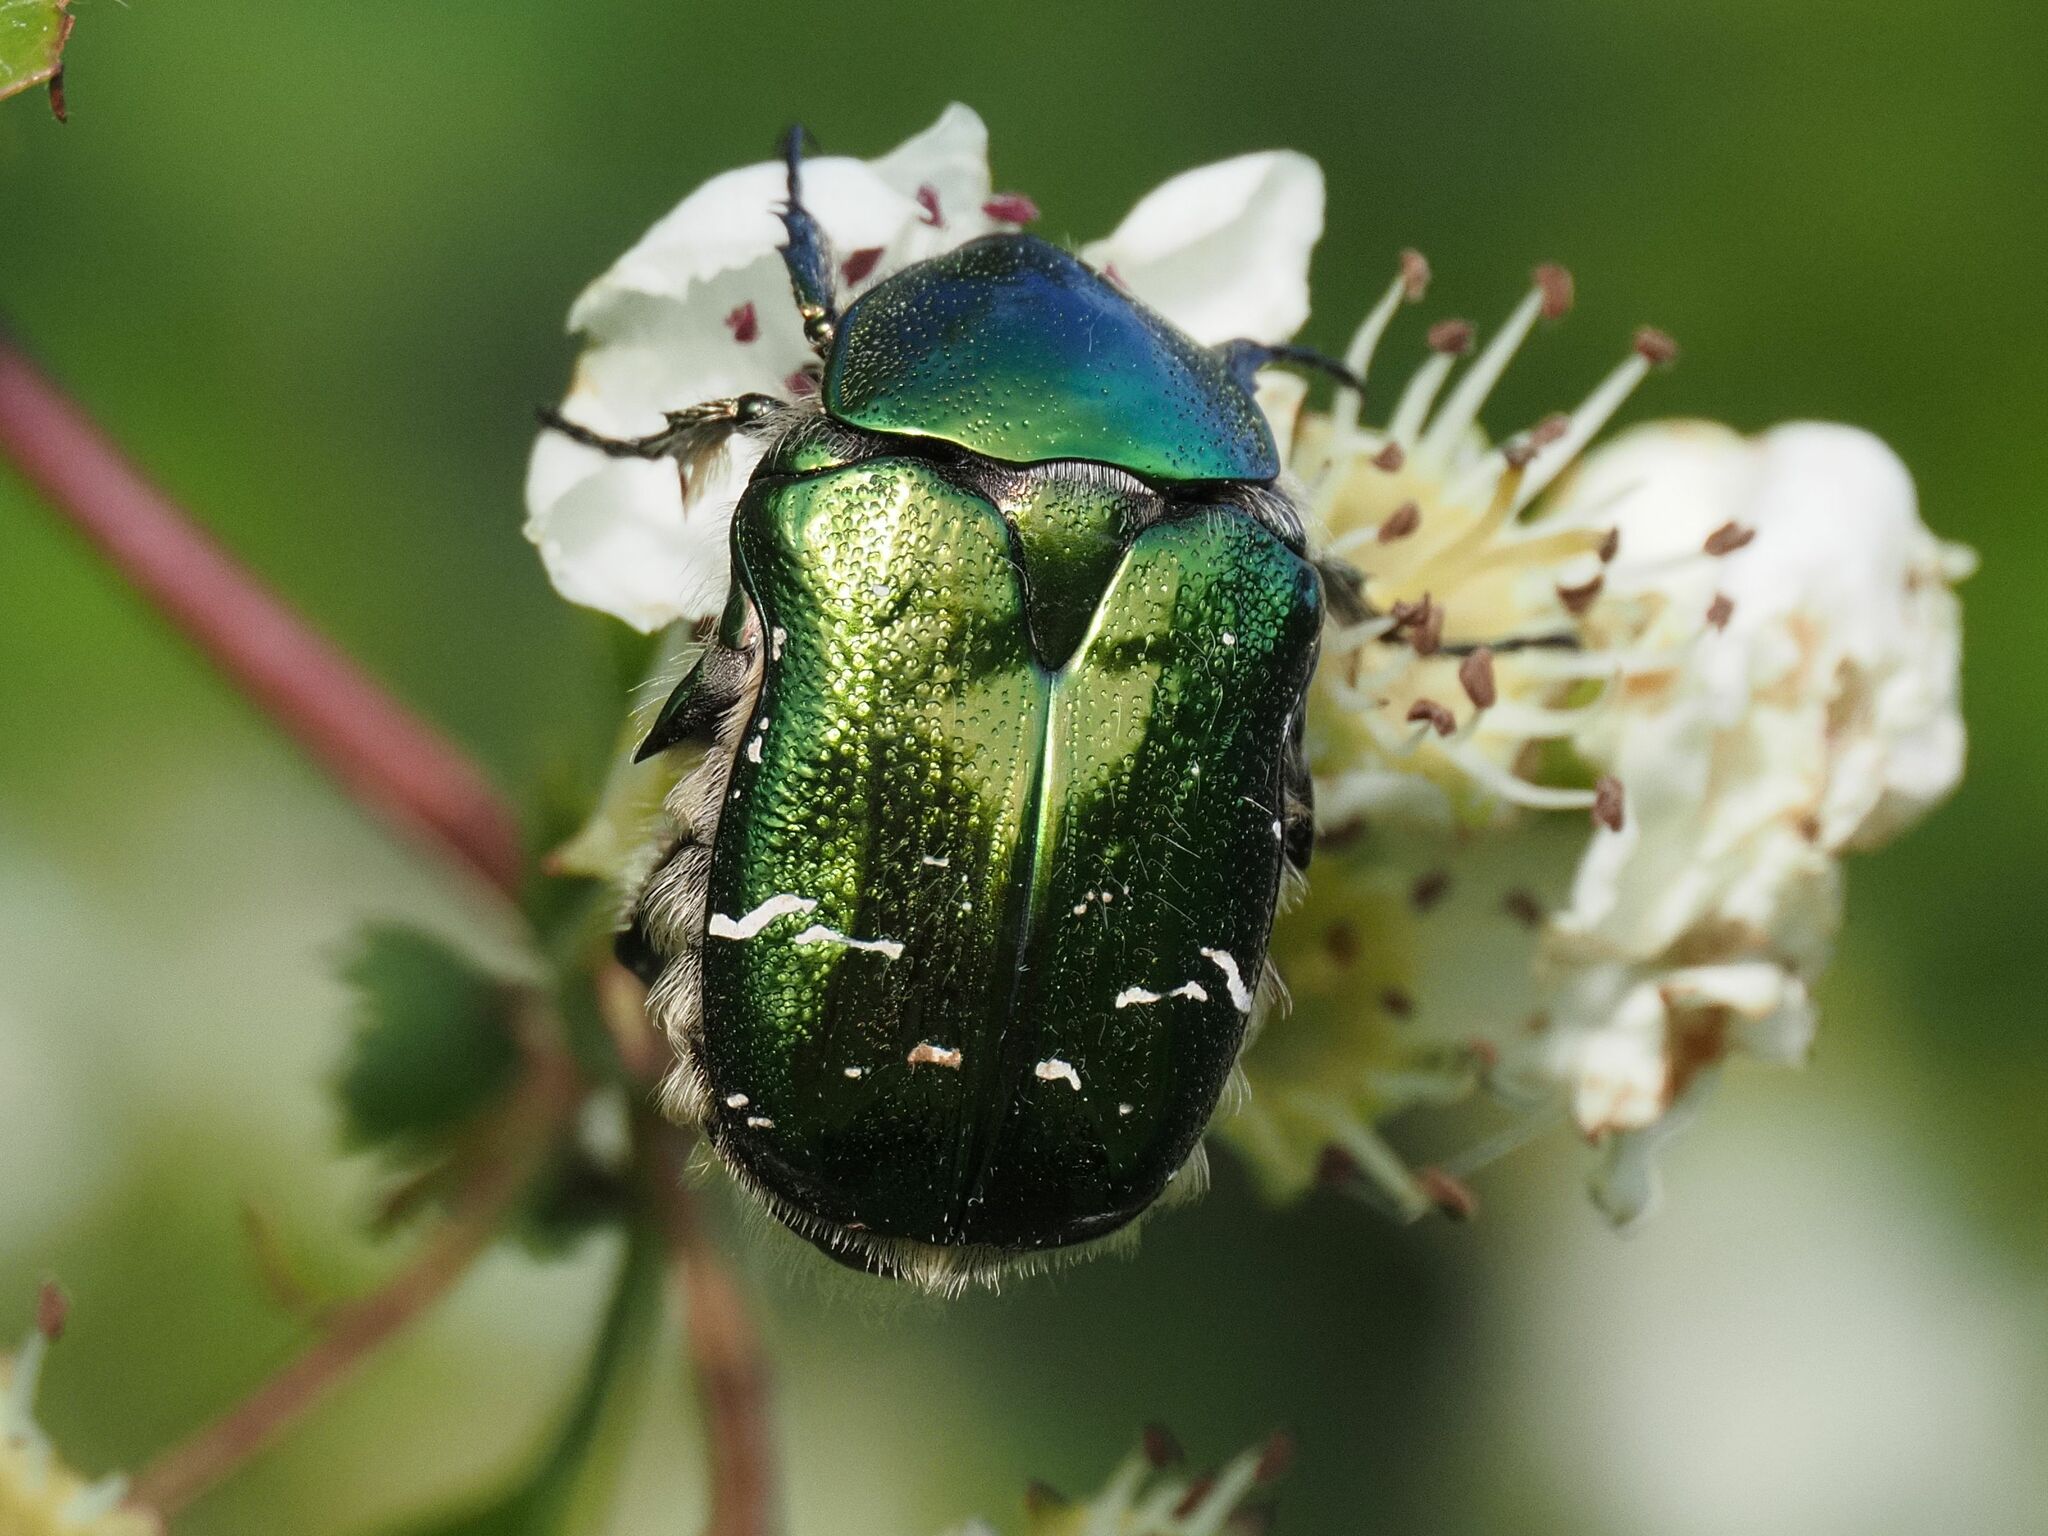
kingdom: Animalia
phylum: Arthropoda
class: Insecta
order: Coleoptera
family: Scarabaeidae
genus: Cetonia
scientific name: Cetonia aurata
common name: Rose chafer
